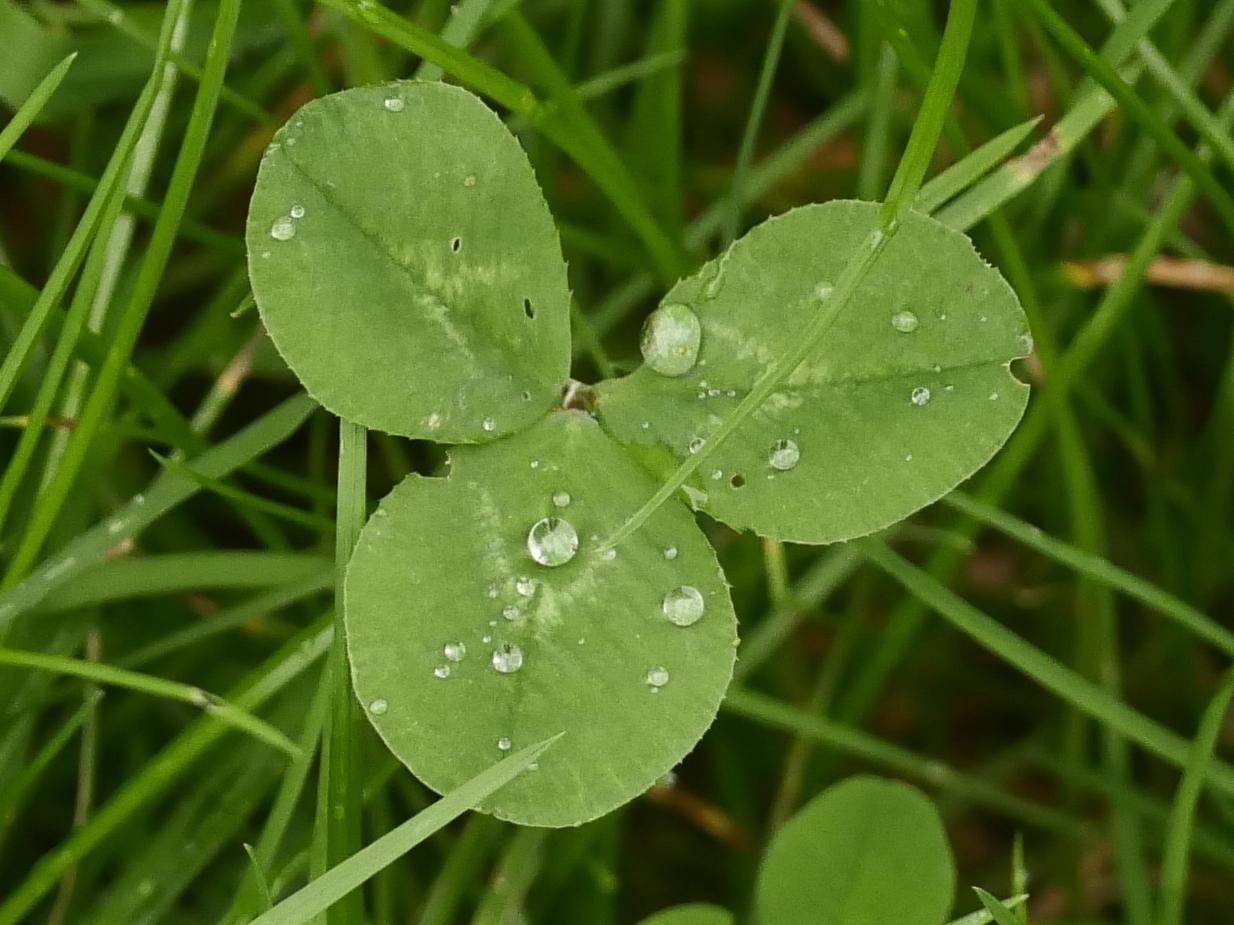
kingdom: Plantae
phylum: Tracheophyta
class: Magnoliopsida
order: Fabales
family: Fabaceae
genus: Trifolium
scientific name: Trifolium repens
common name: White clover
